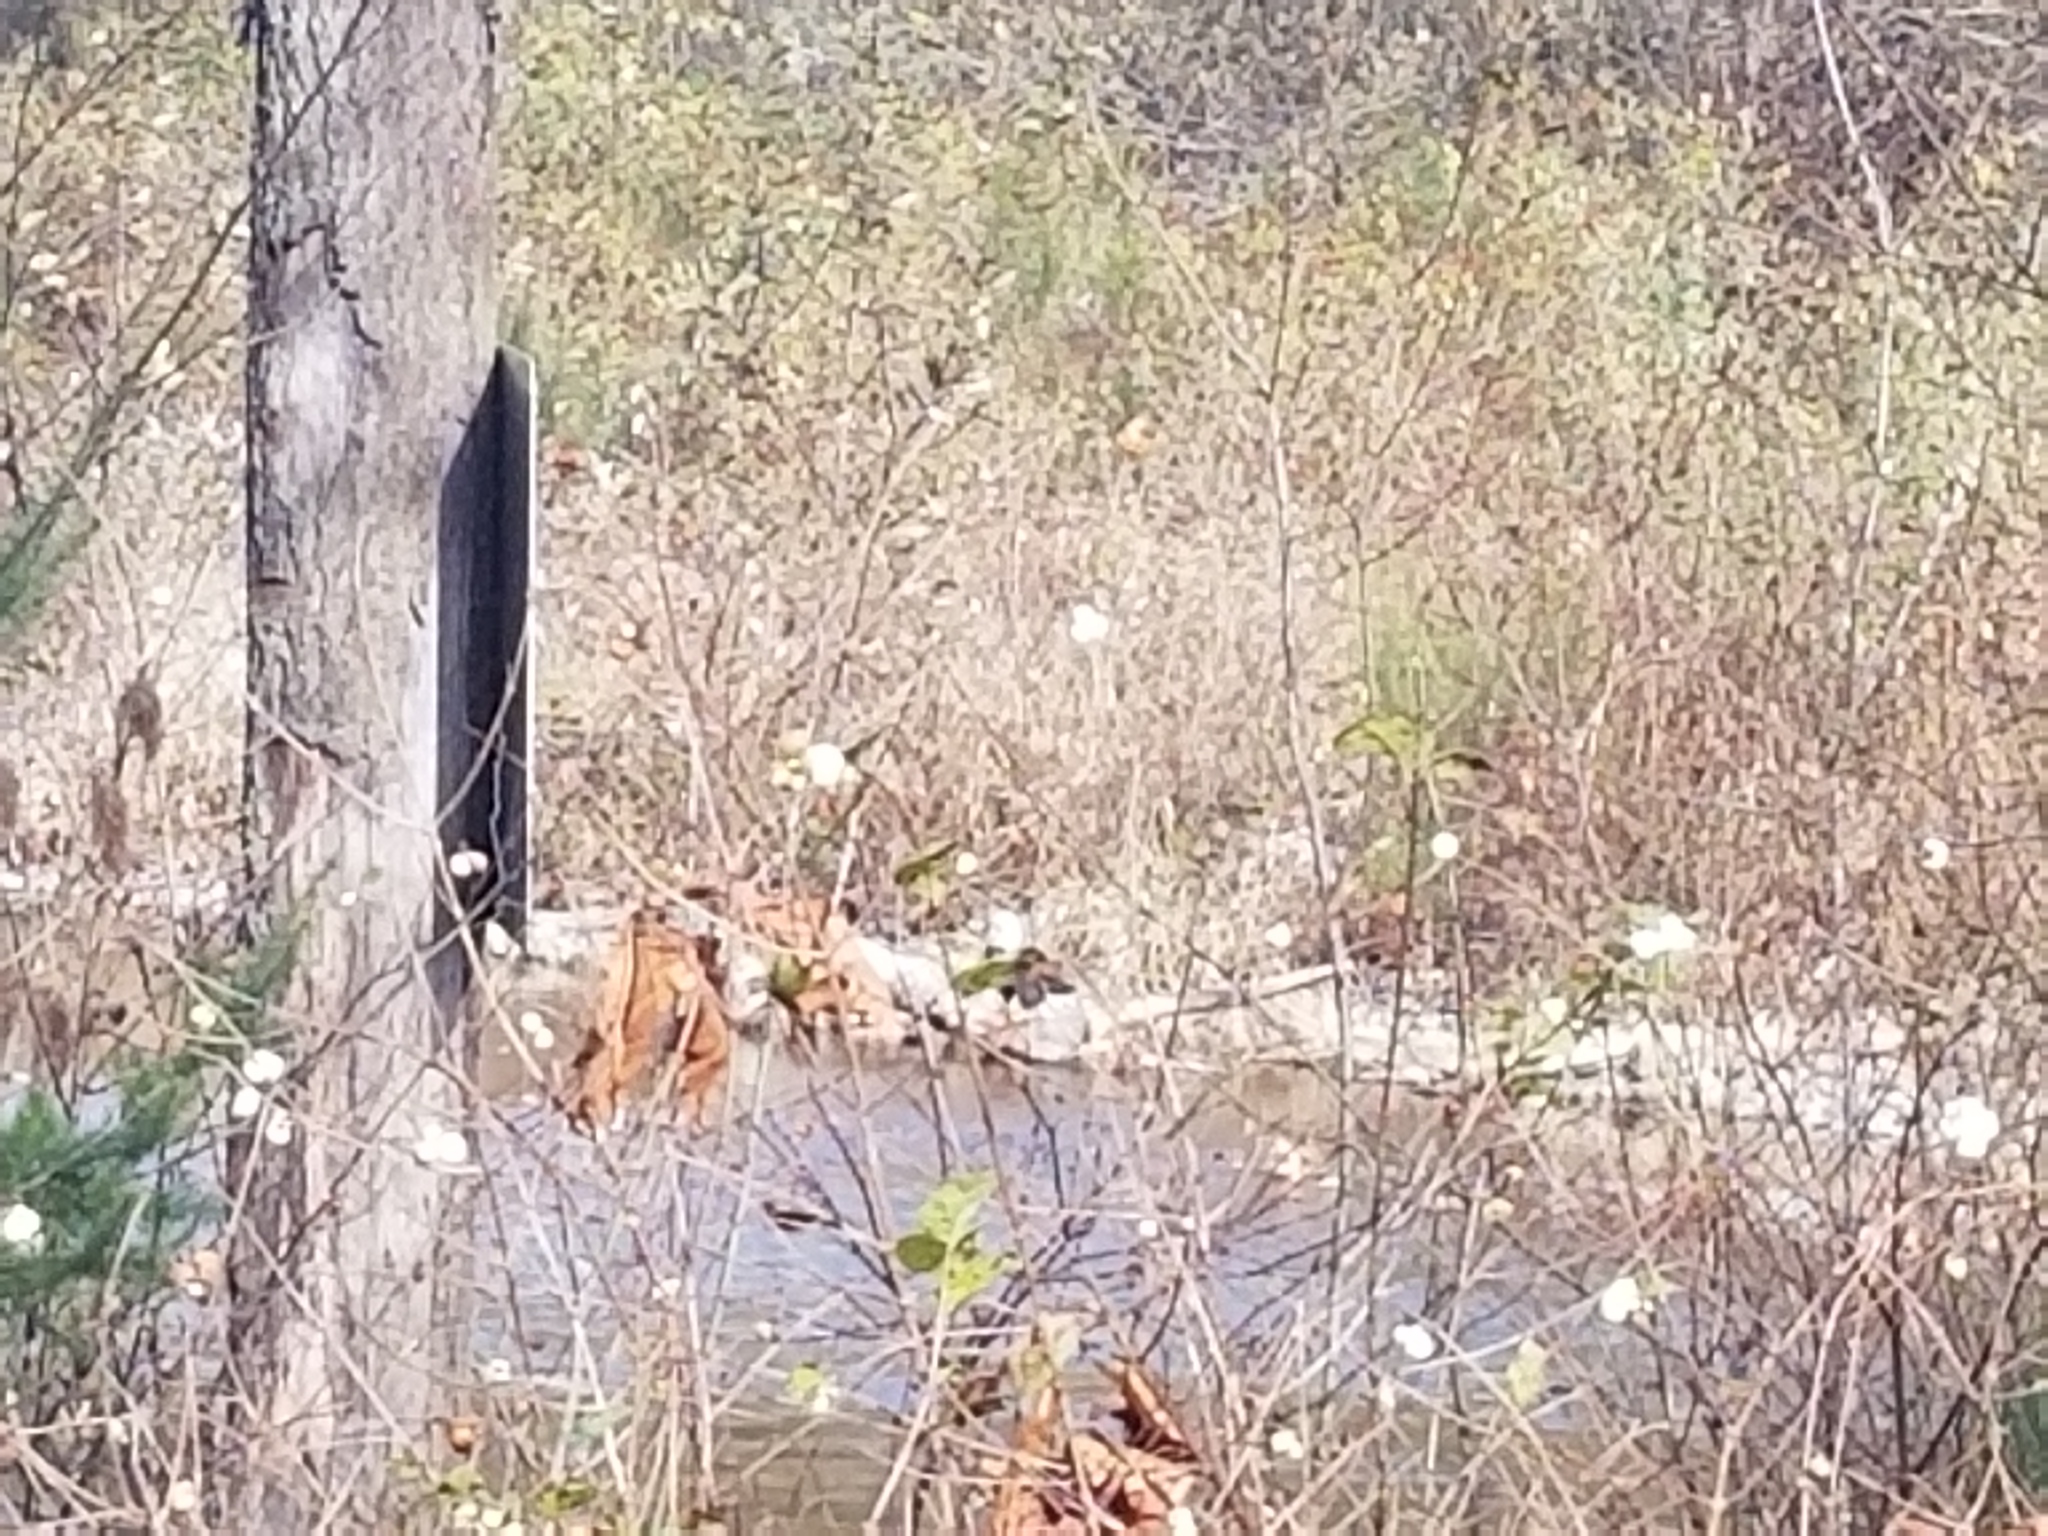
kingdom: Animalia
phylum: Chordata
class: Aves
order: Accipitriformes
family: Accipitridae
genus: Haliaeetus
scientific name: Haliaeetus leucocephalus
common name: Bald eagle
